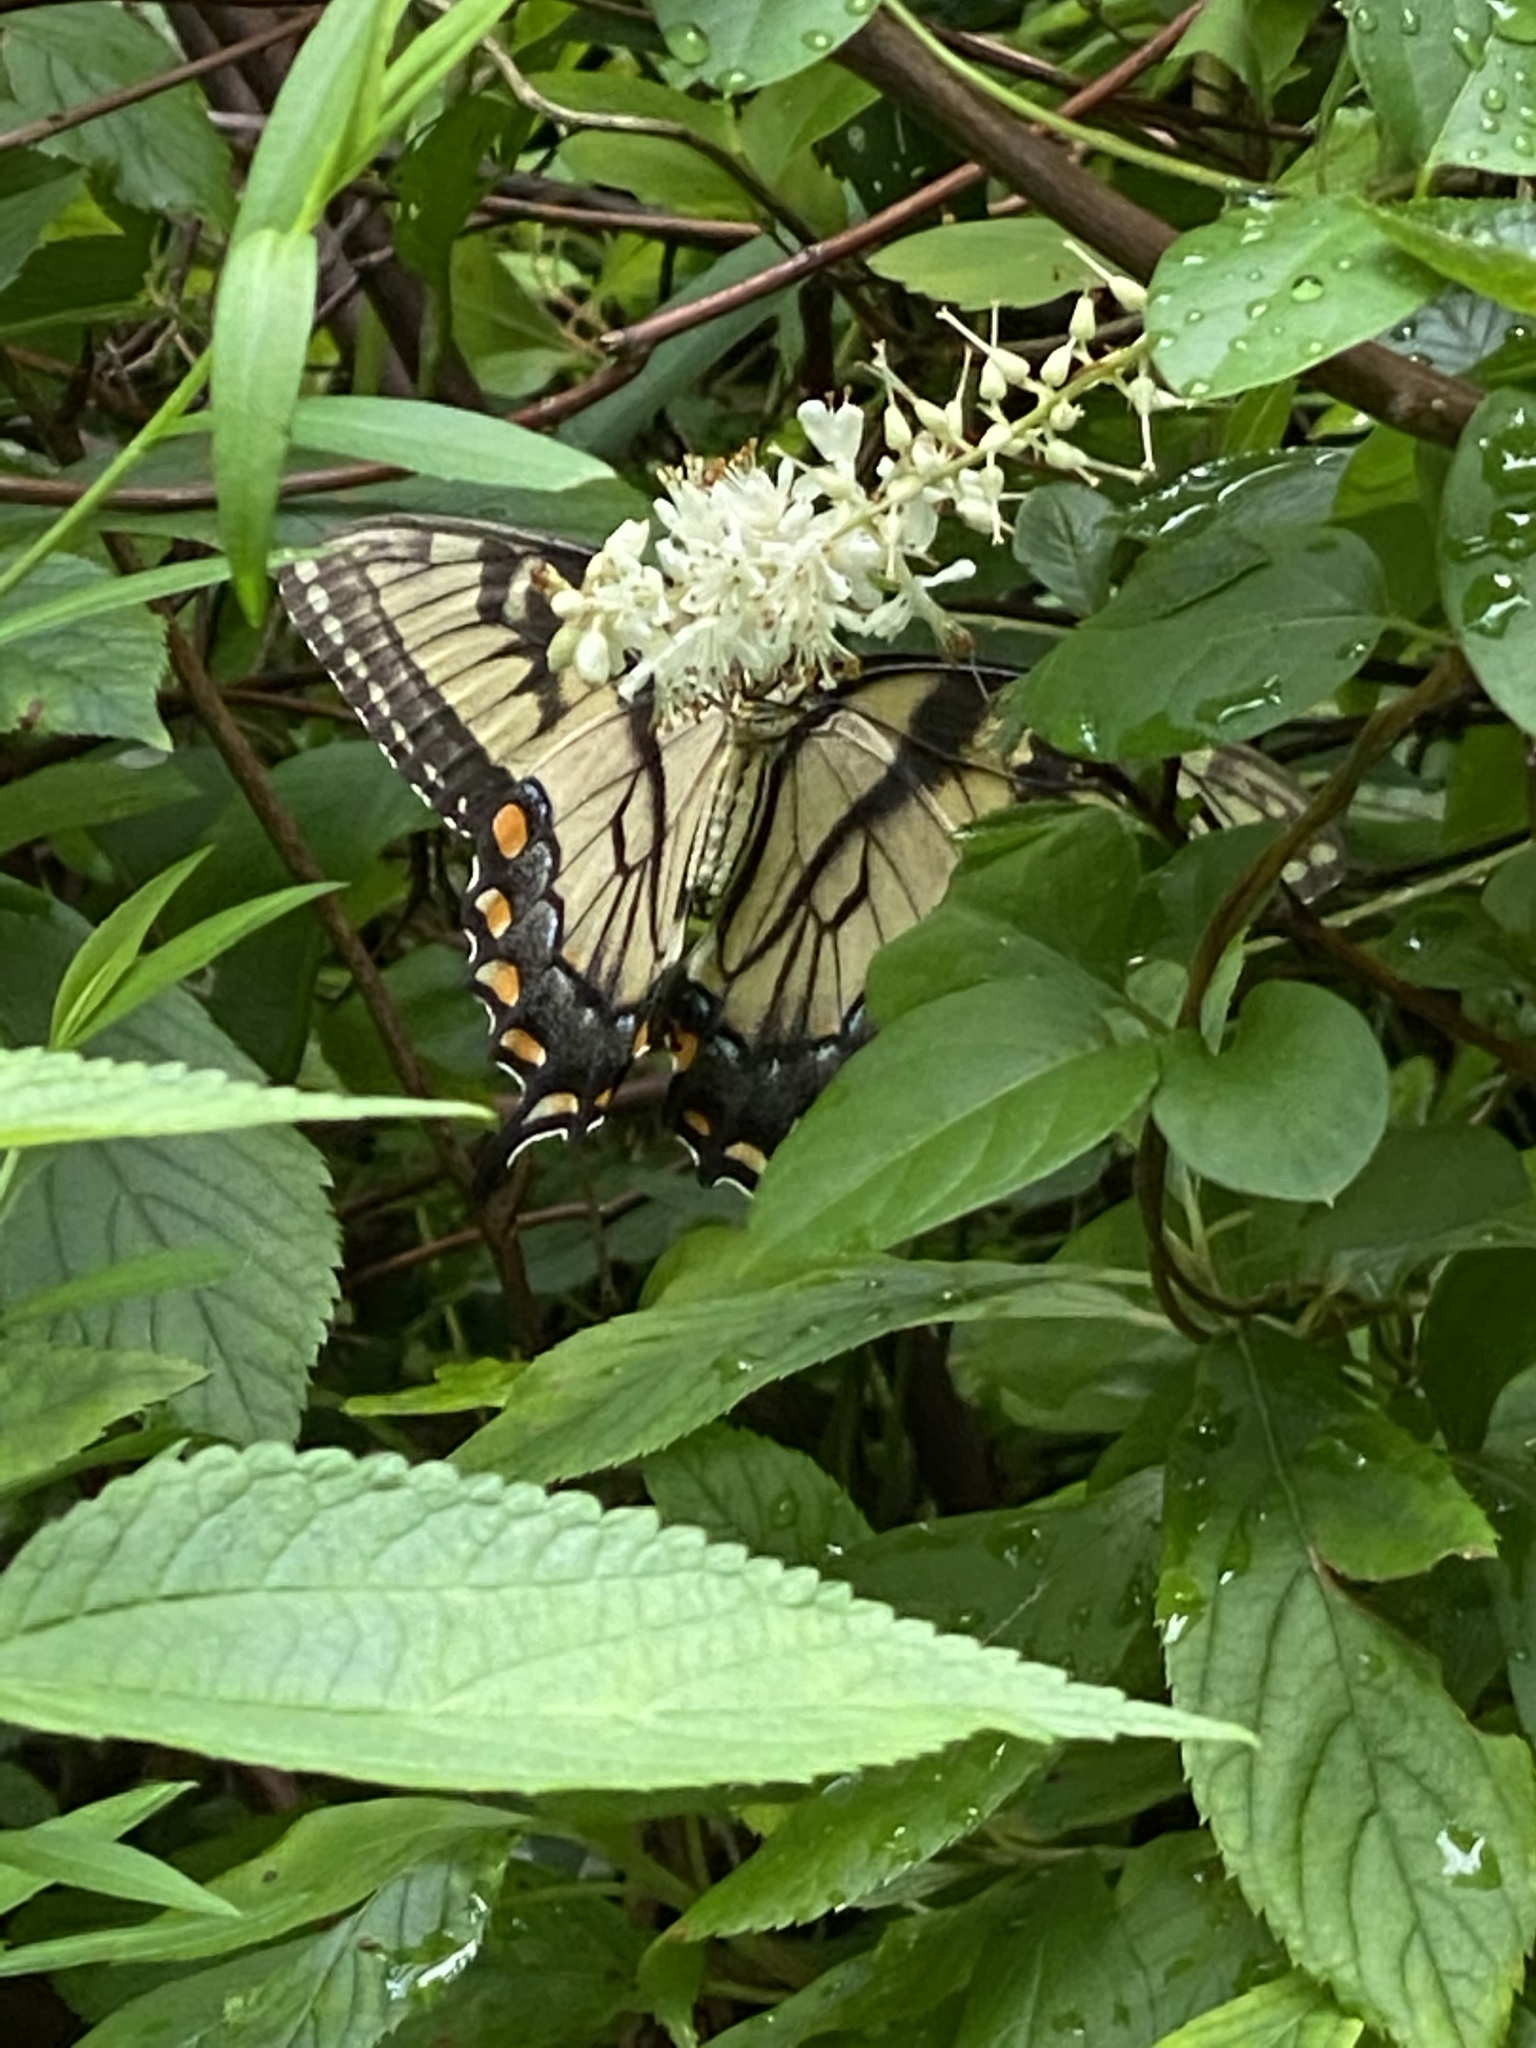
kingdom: Animalia
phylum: Arthropoda
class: Insecta
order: Lepidoptera
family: Papilionidae
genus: Papilio
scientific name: Papilio glaucus
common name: Tiger swallowtail
